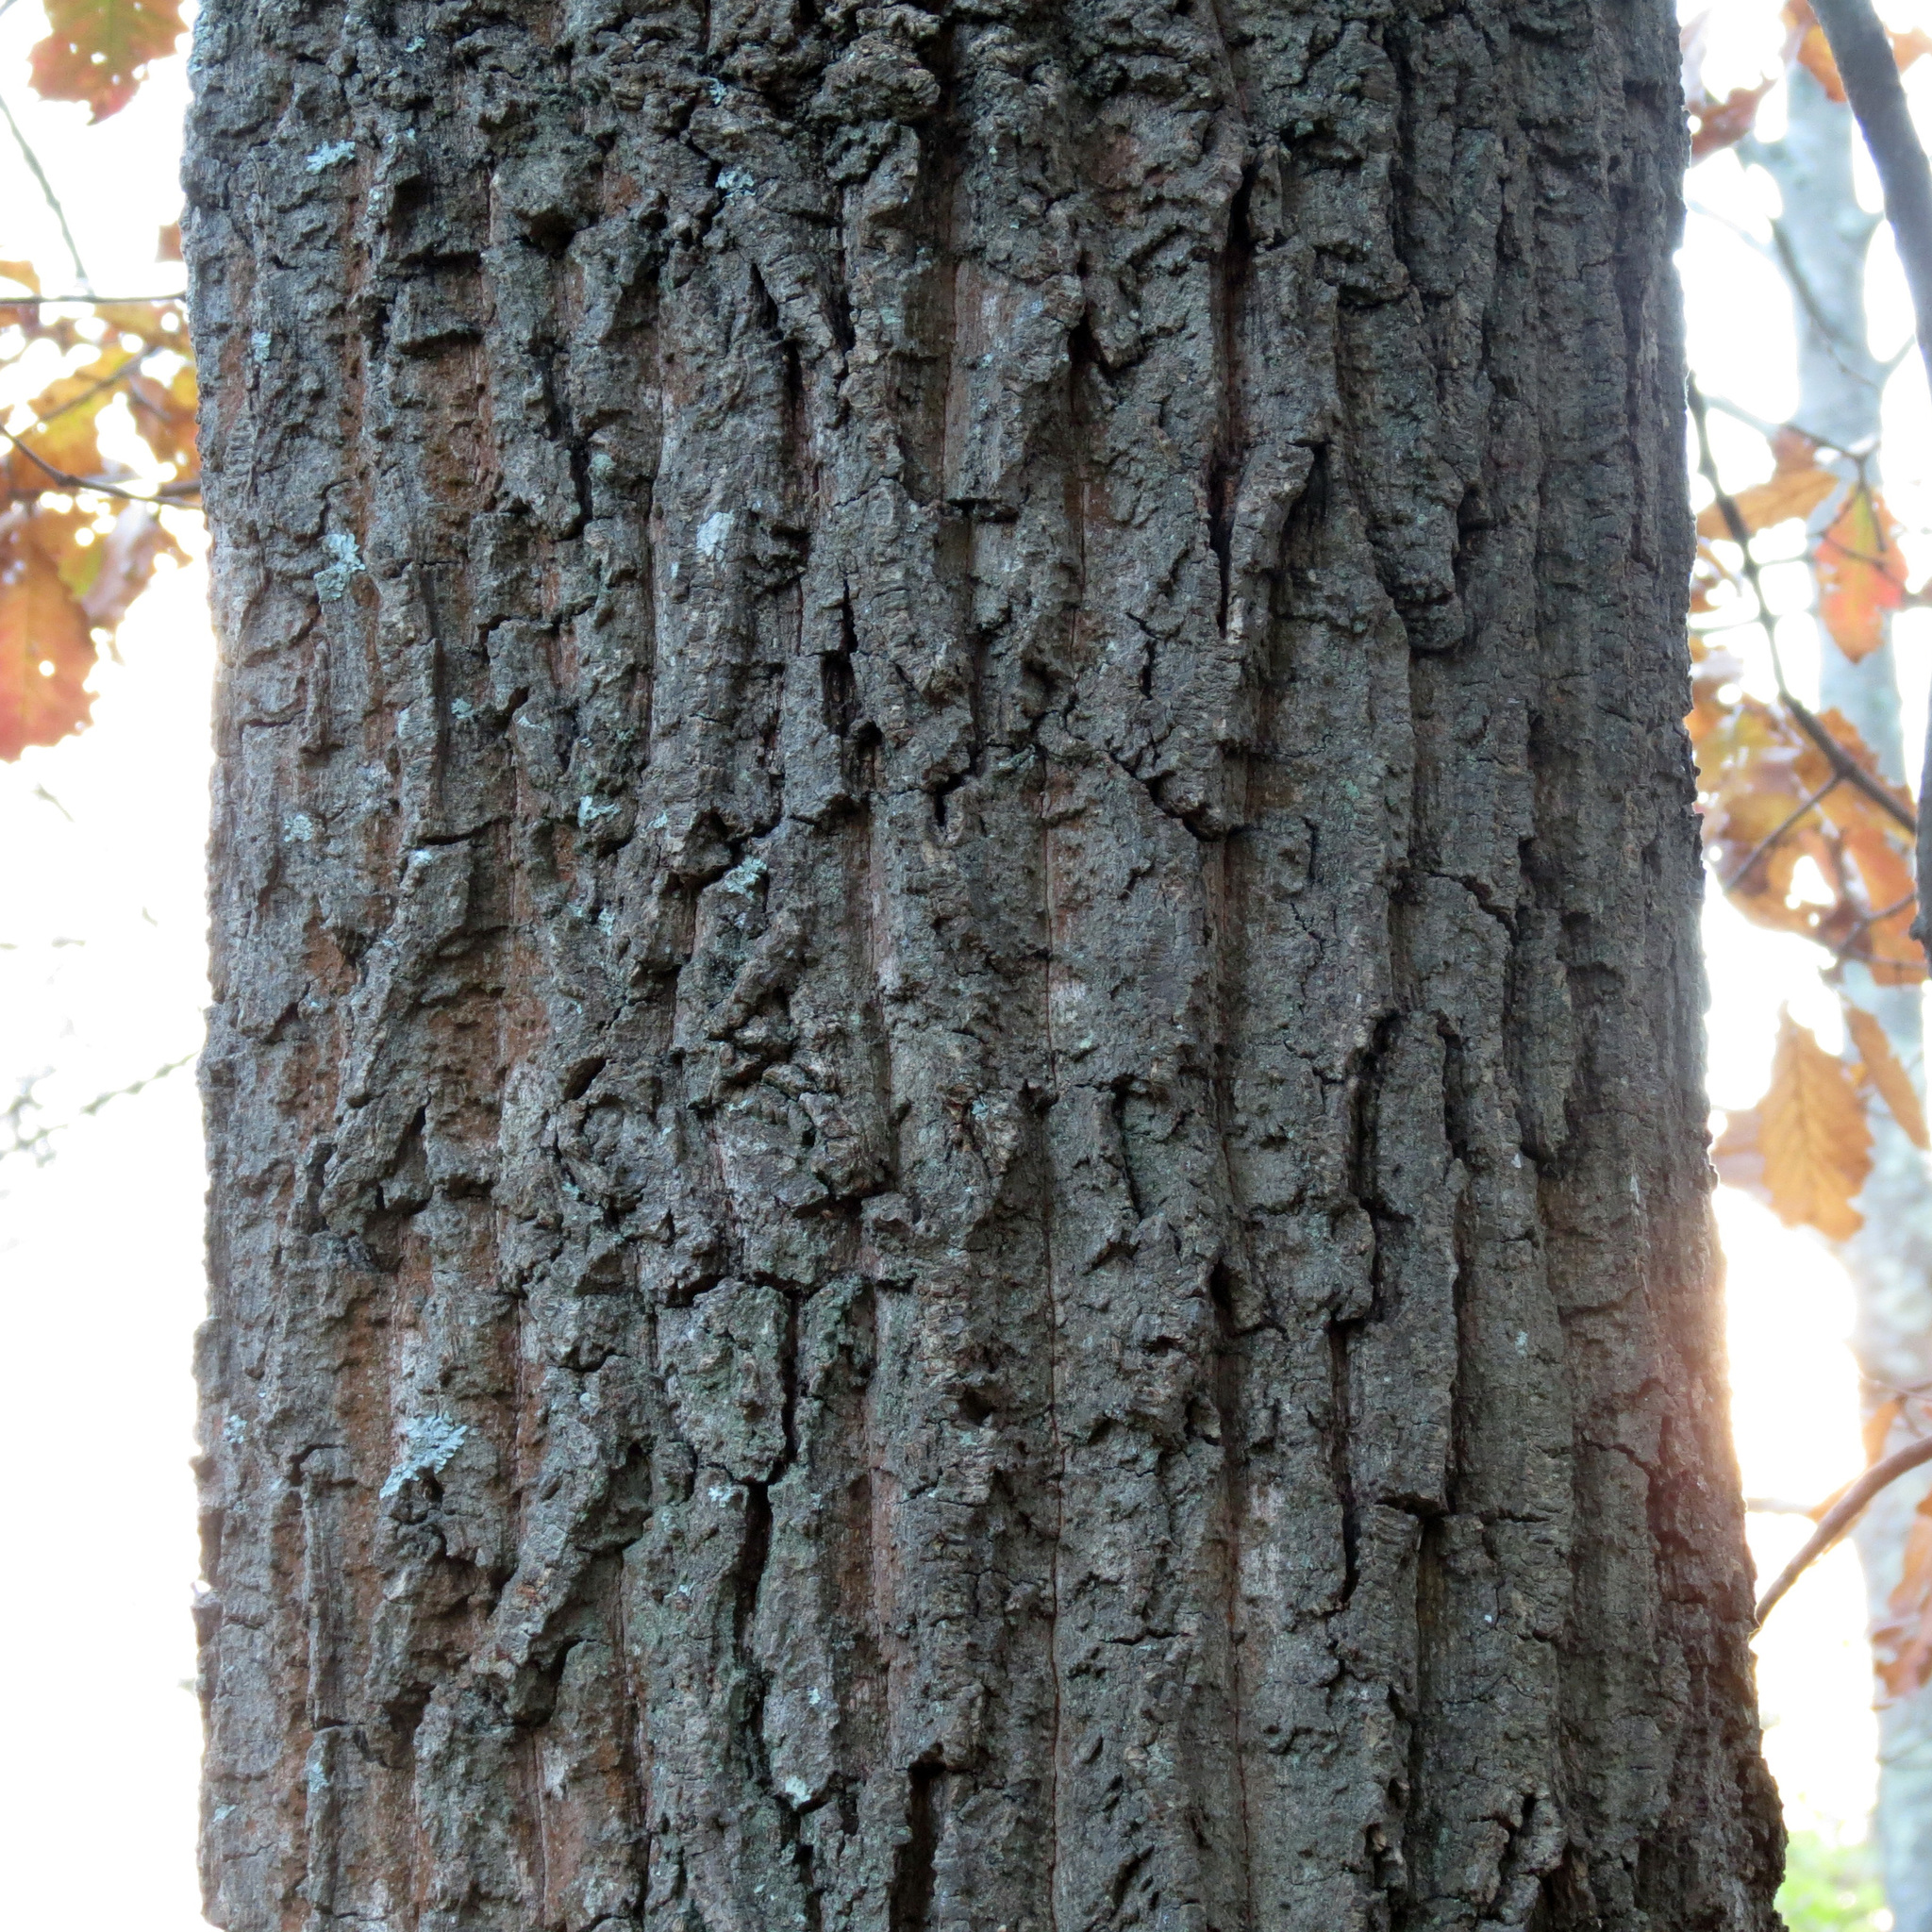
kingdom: Plantae
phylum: Tracheophyta
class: Magnoliopsida
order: Fagales
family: Fagaceae
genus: Quercus
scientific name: Quercus montana
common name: Chestnut oak
